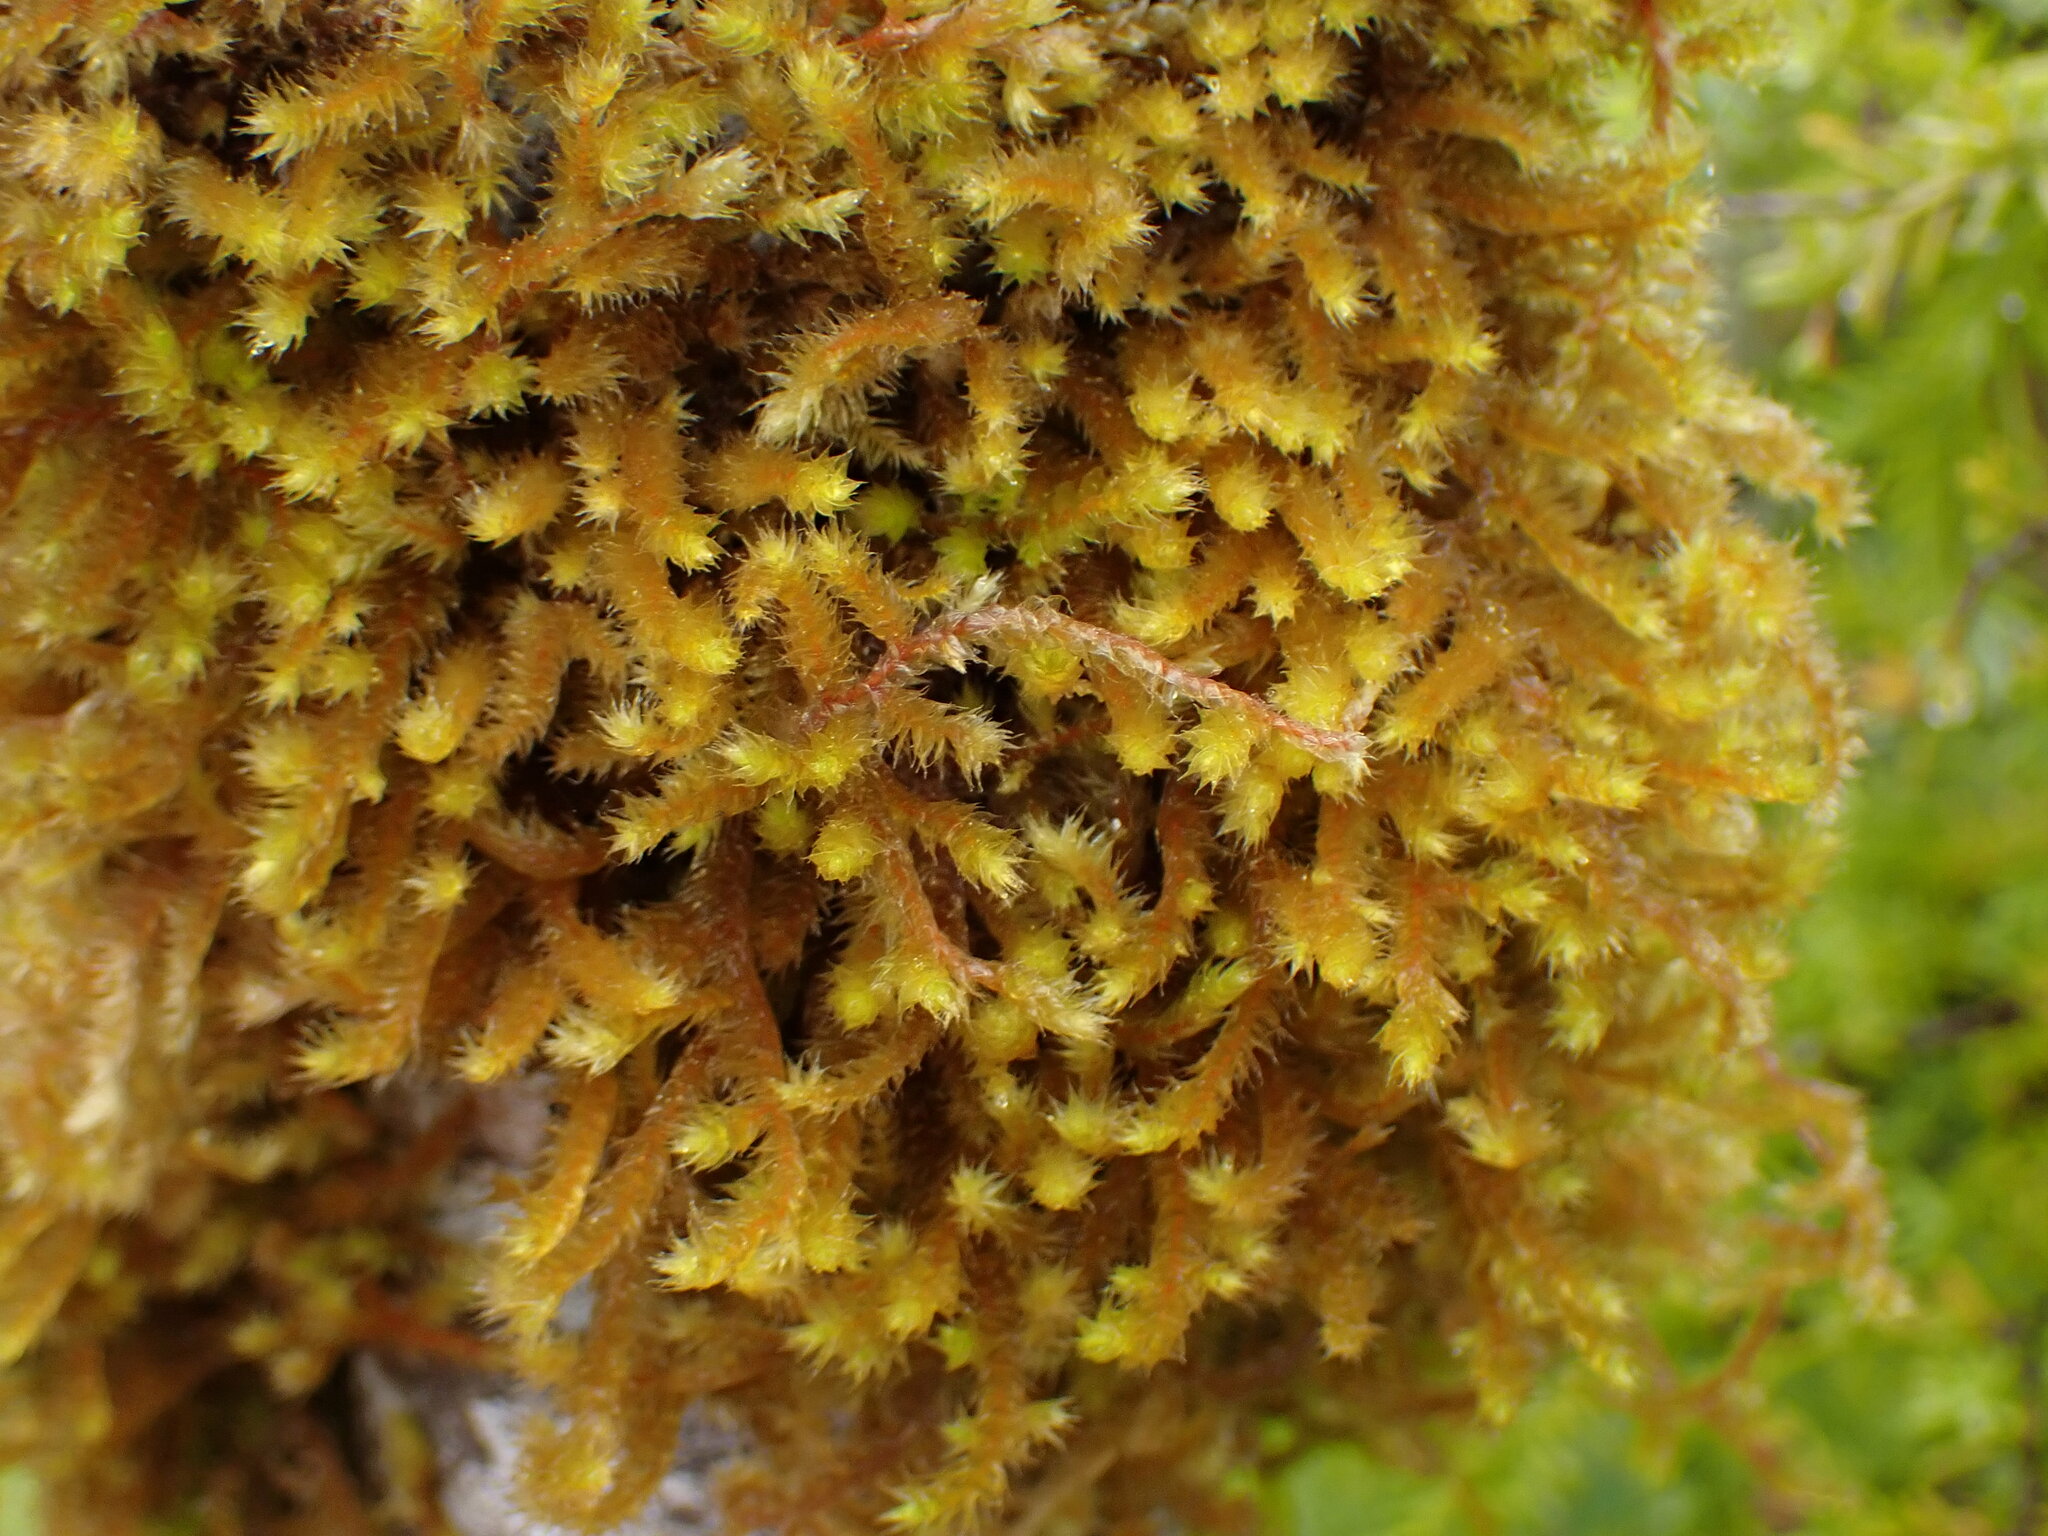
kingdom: Plantae
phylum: Bryophyta
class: Bryopsida
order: Hypnales
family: Antitrichiaceae
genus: Antitrichia
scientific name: Antitrichia curtipendula
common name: Pendulous wing-moss
